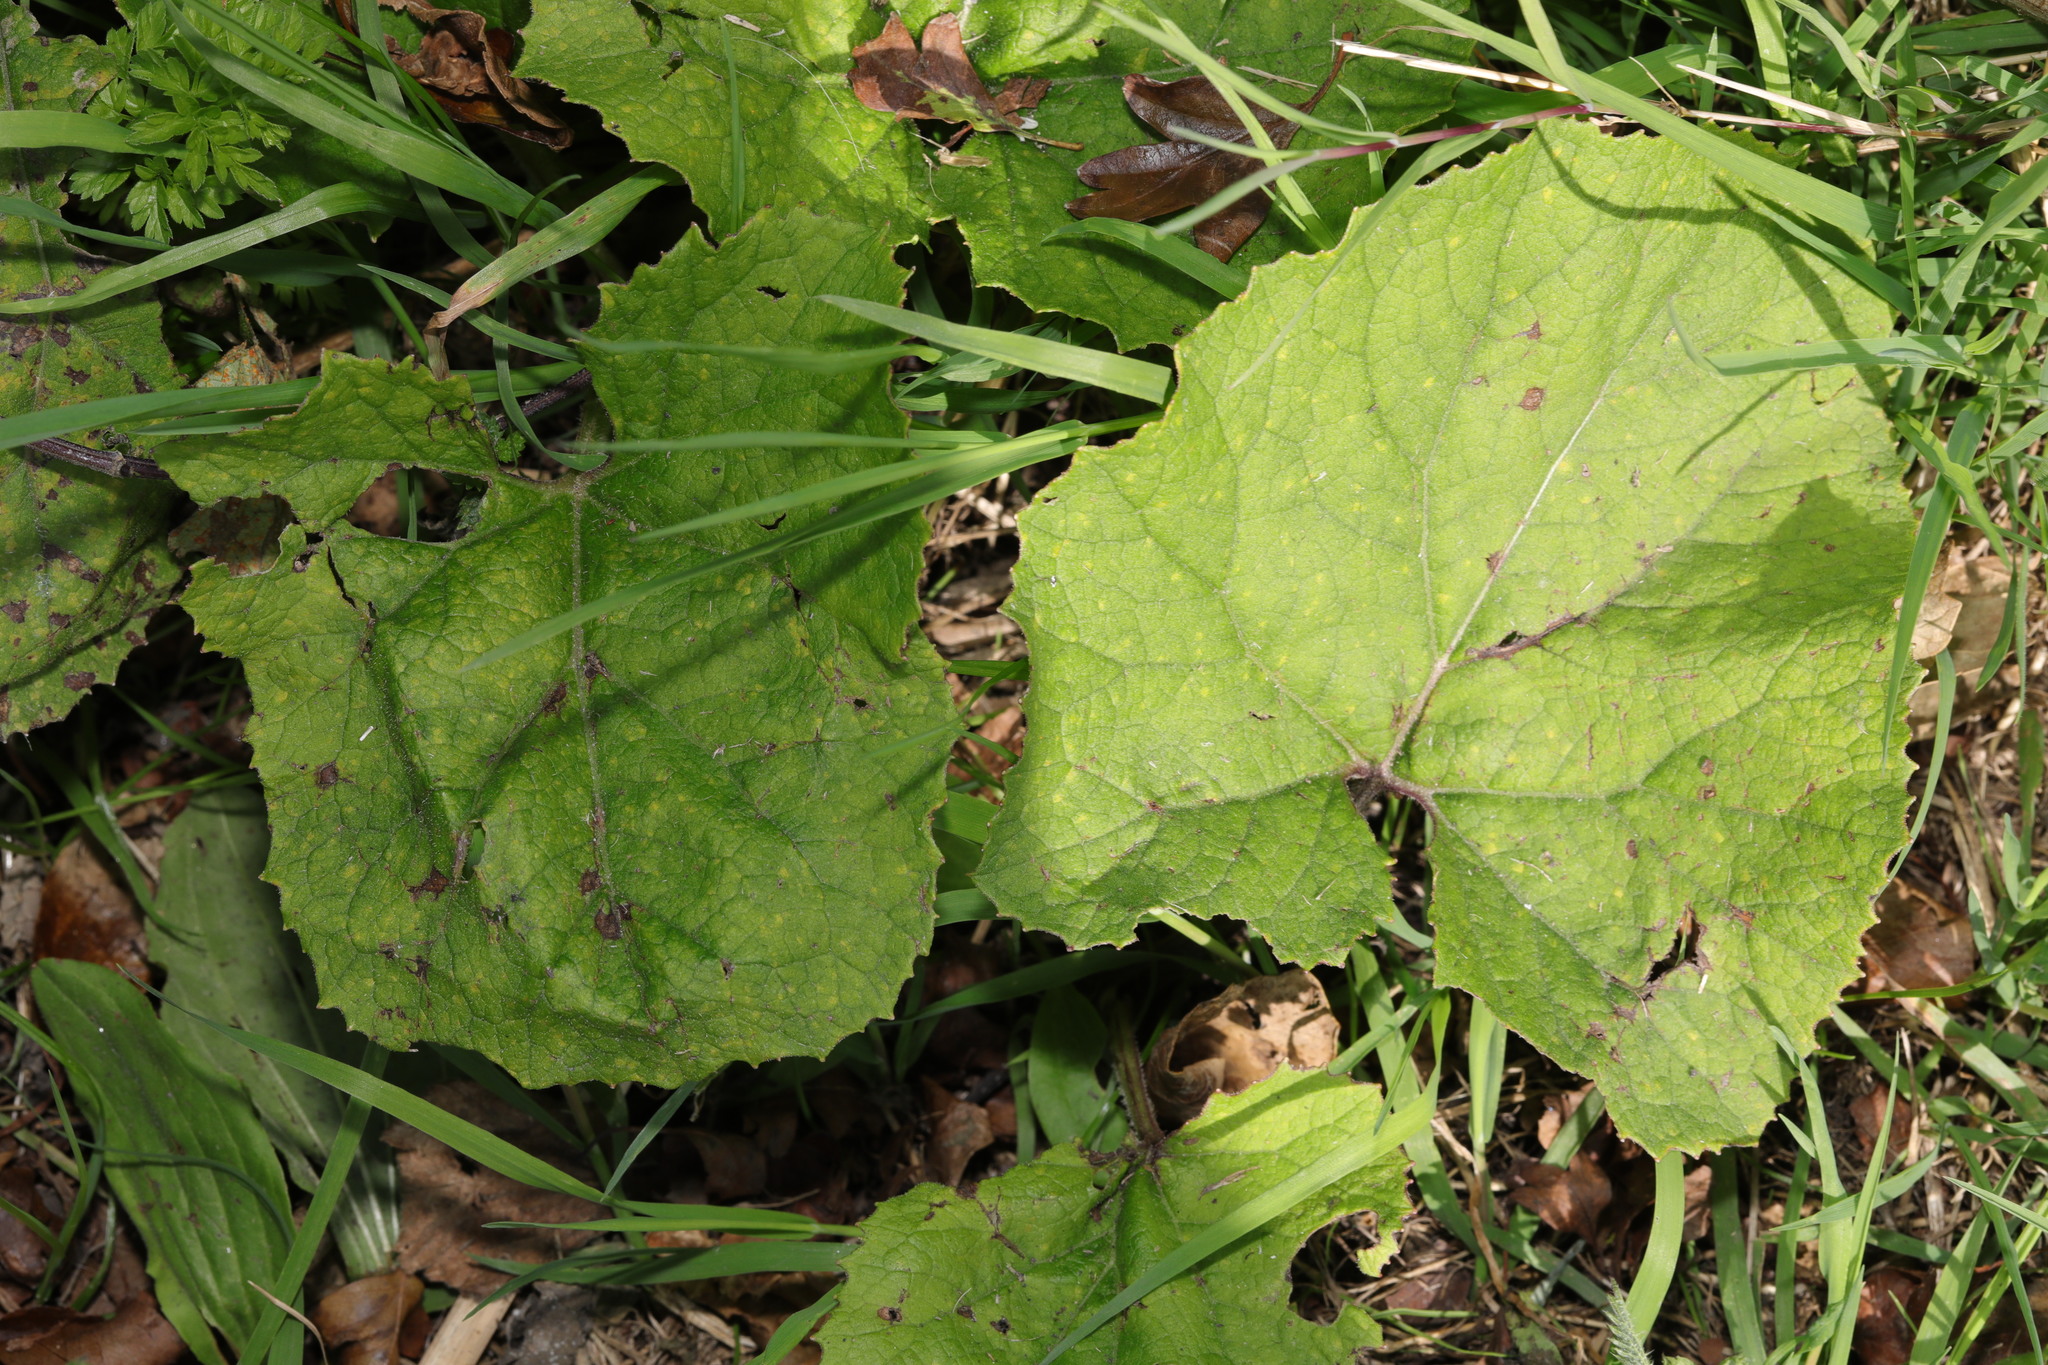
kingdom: Plantae
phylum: Tracheophyta
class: Magnoliopsida
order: Asterales
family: Asteraceae
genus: Tussilago
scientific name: Tussilago farfara
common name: Coltsfoot
